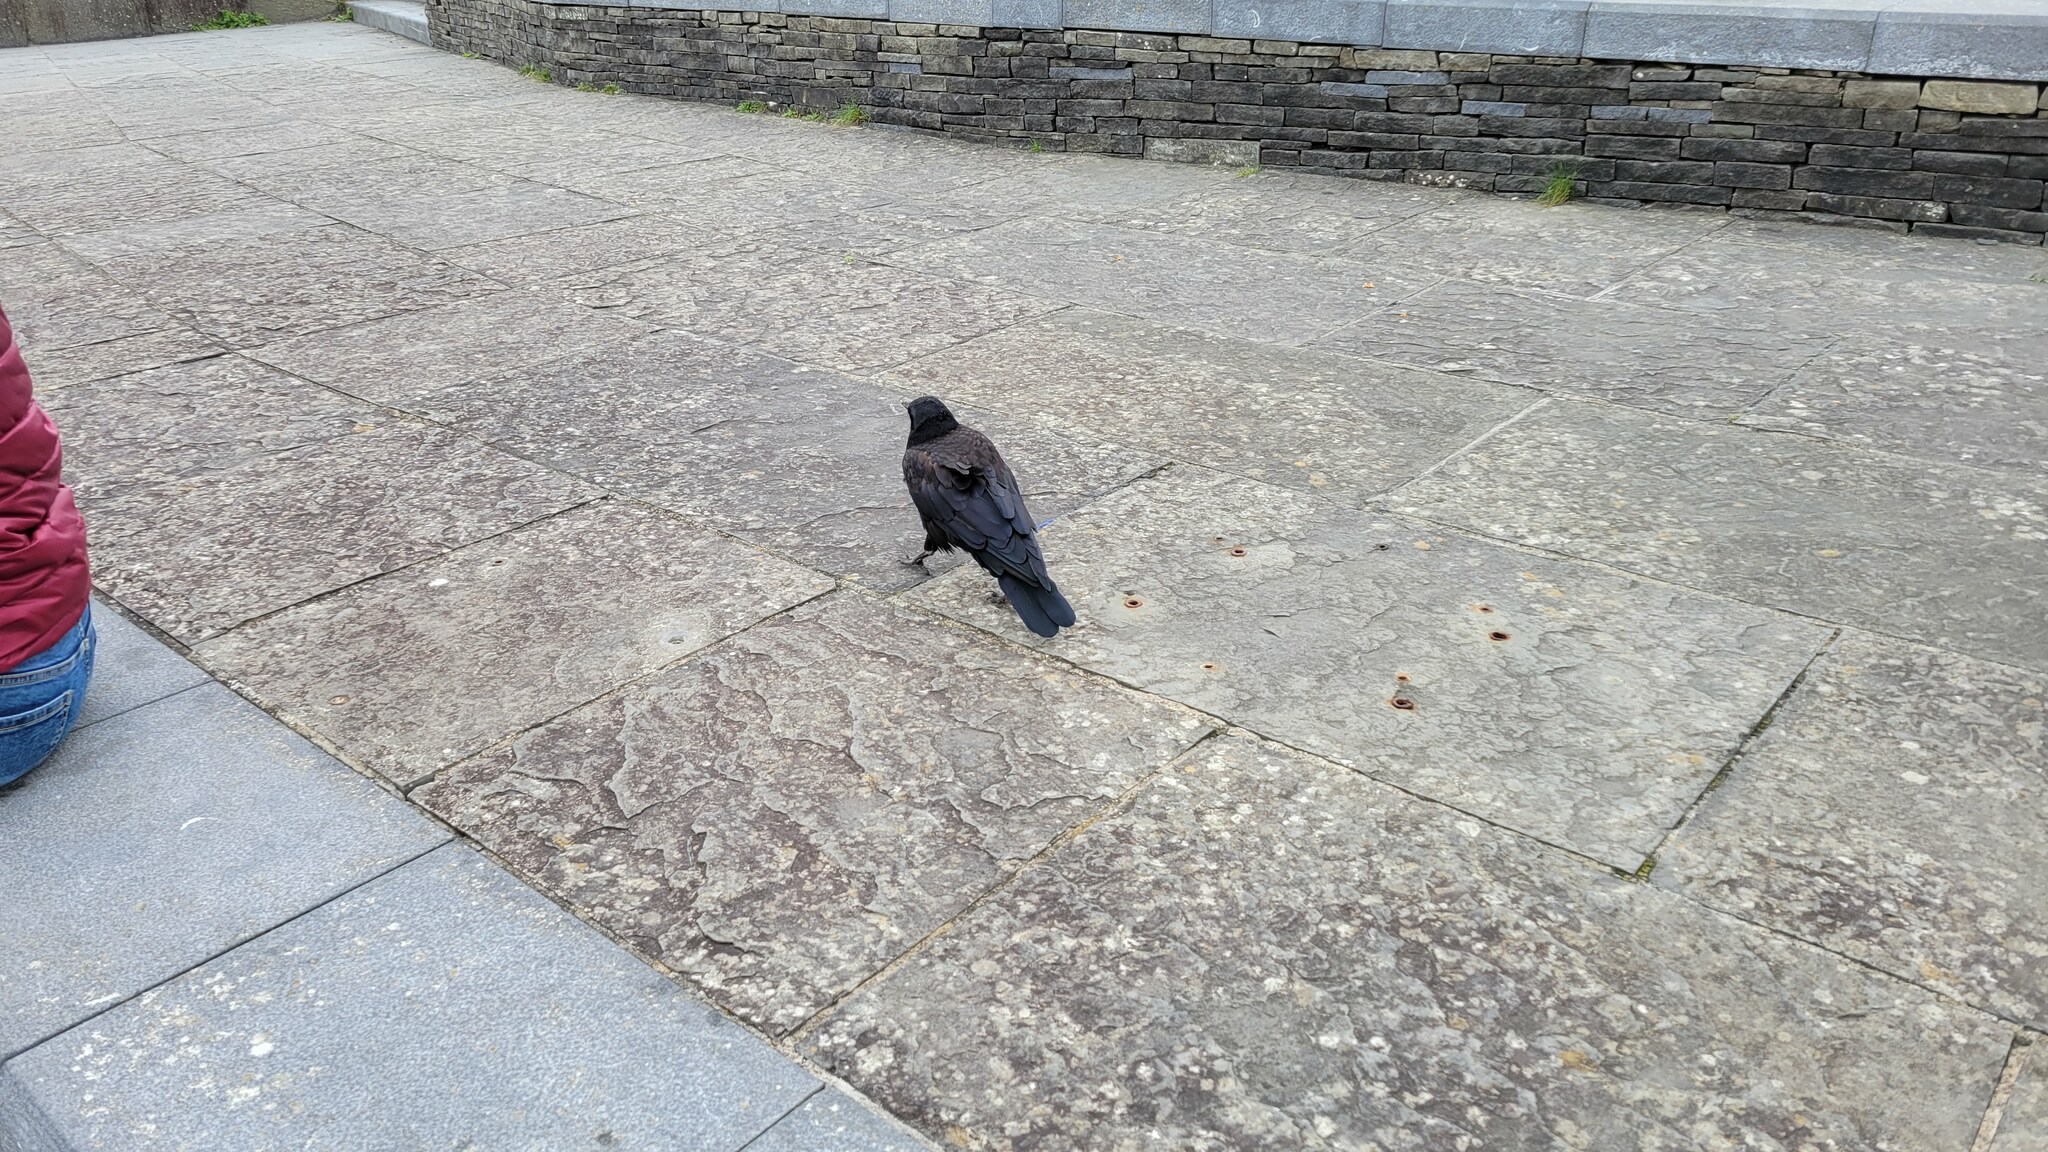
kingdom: Animalia
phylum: Chordata
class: Aves
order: Passeriformes
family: Corvidae
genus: Corvus
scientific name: Corvus frugilegus
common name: Rook
